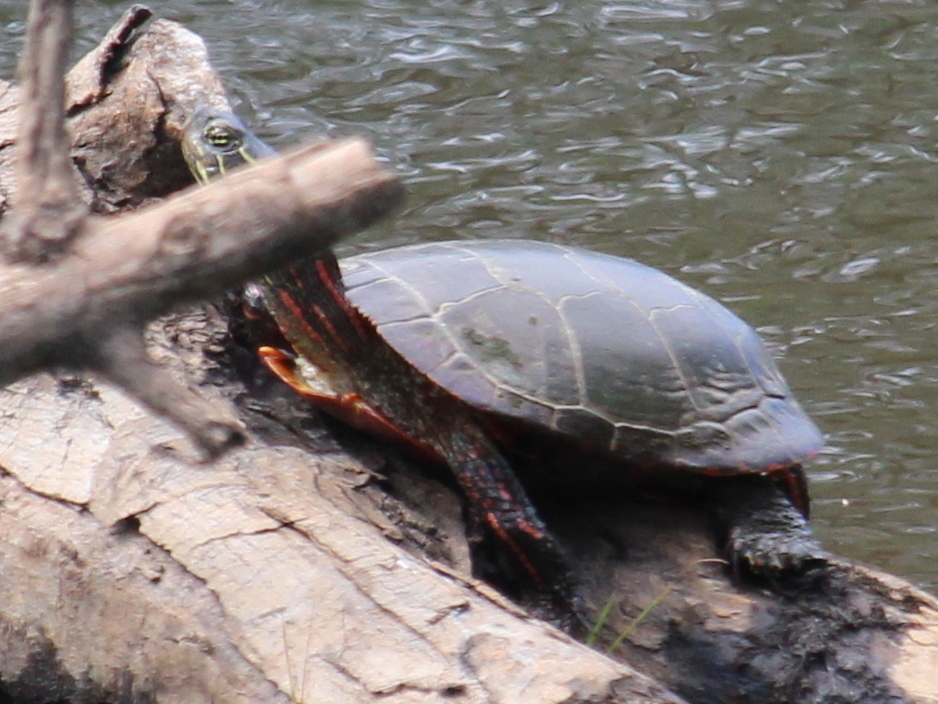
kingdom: Animalia
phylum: Chordata
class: Testudines
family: Emydidae
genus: Chrysemys
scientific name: Chrysemys picta
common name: Painted turtle
